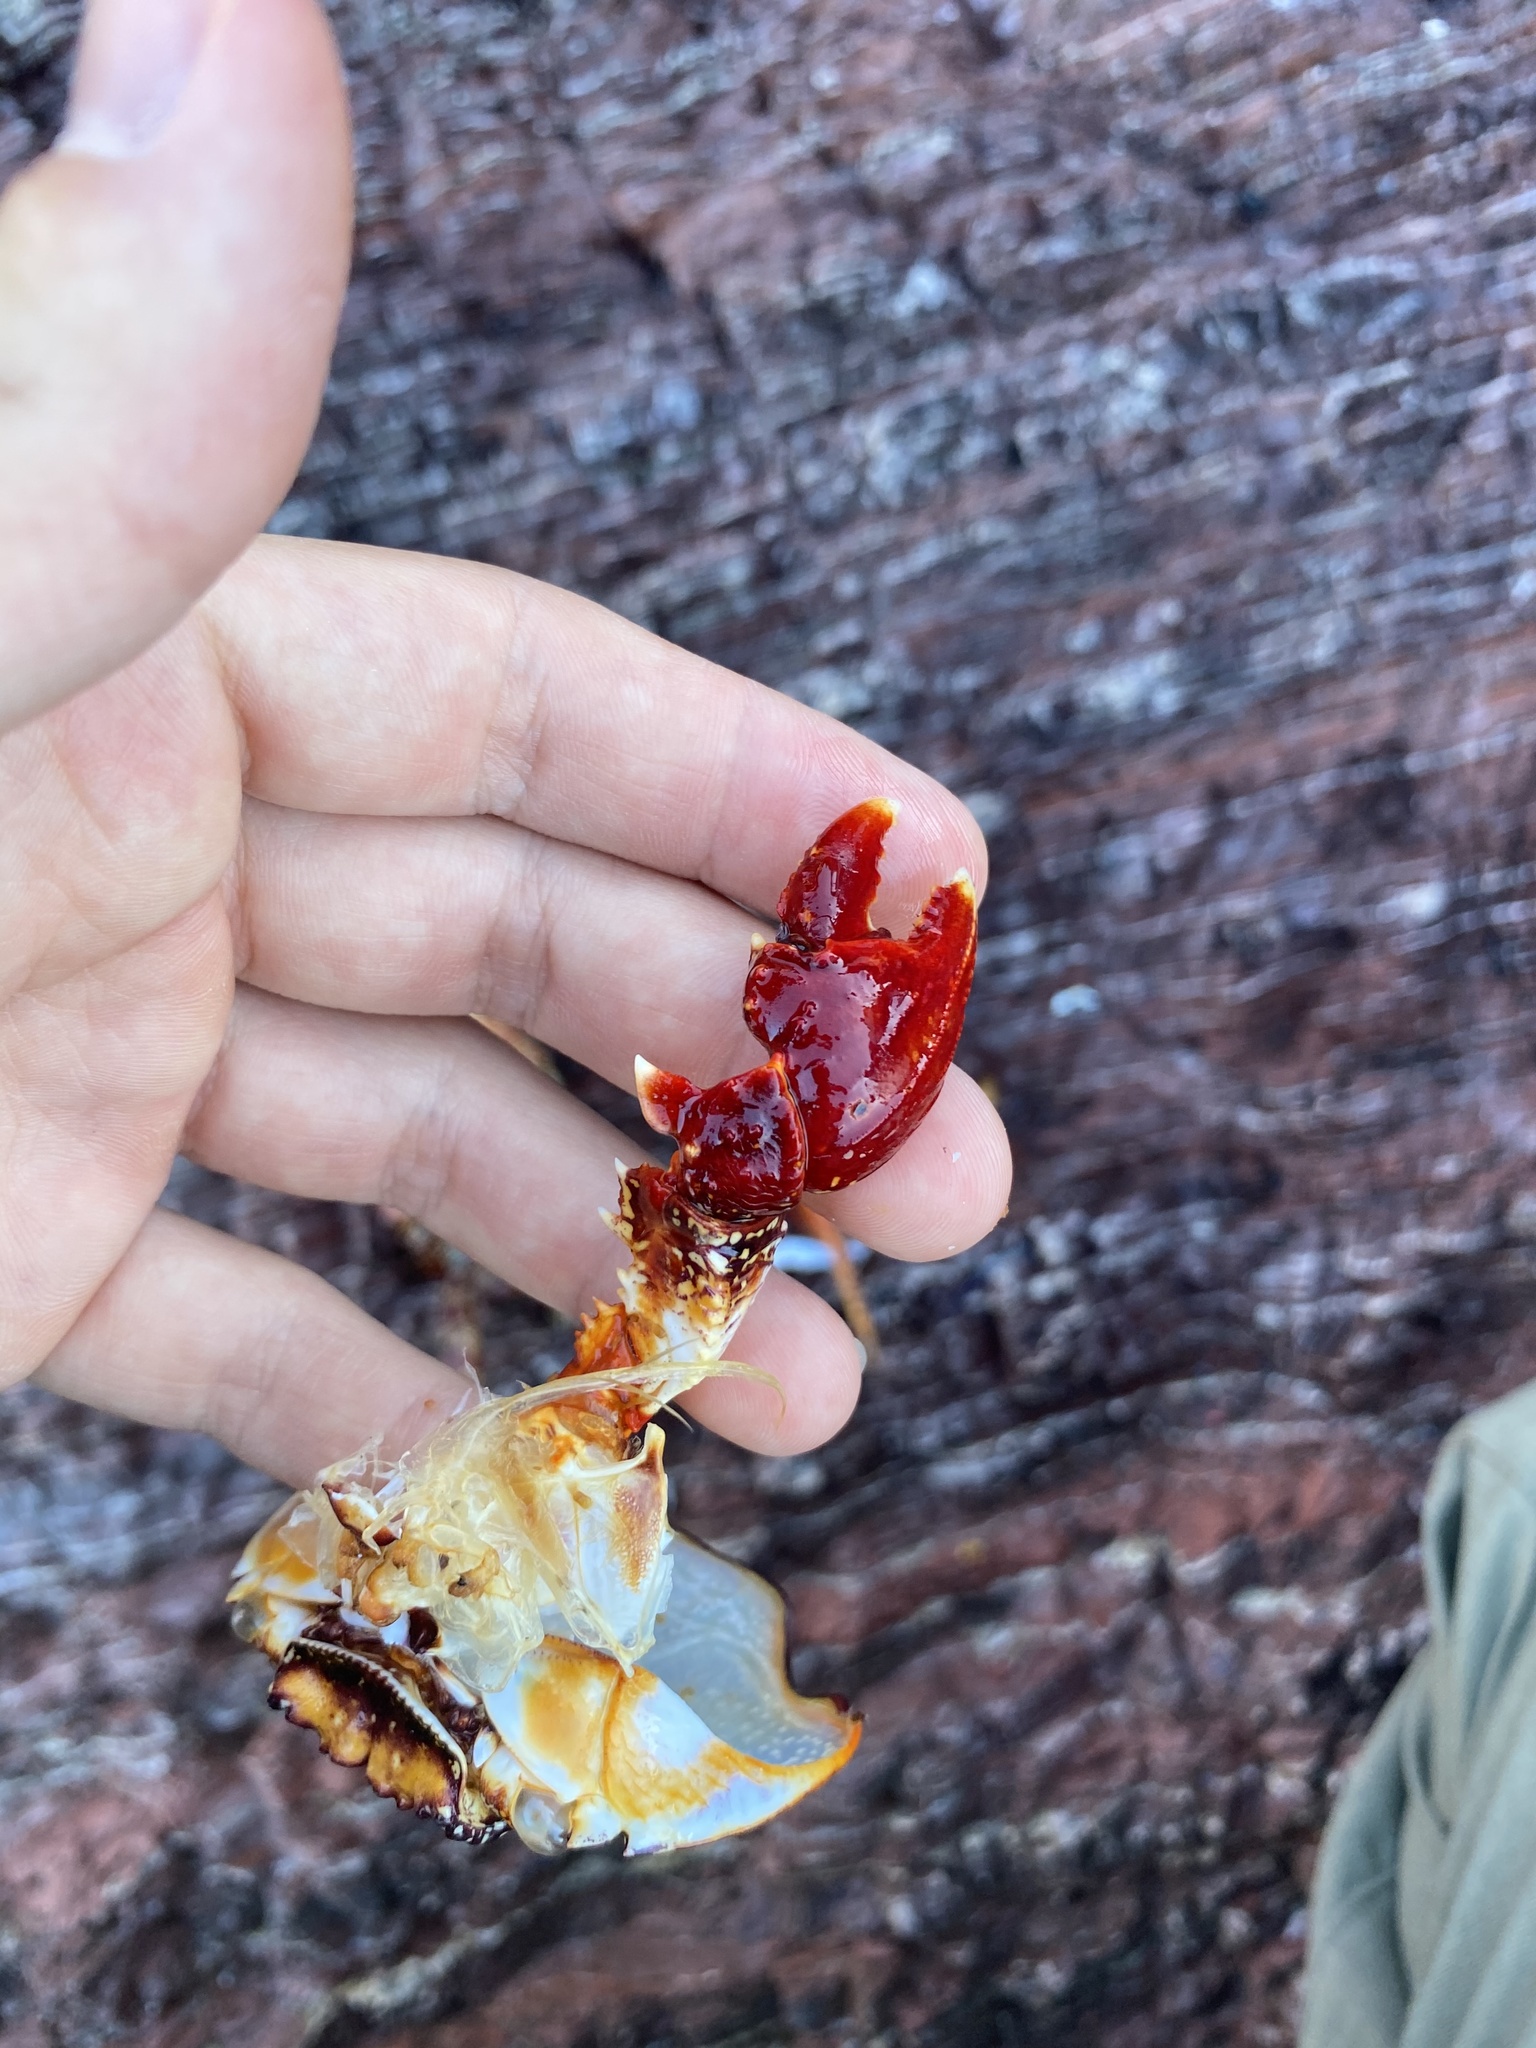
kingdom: Animalia
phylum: Arthropoda
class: Malacostraca
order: Decapoda
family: Grapsidae
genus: Grapsus
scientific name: Grapsus grapsus
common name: Sally lightfoot
